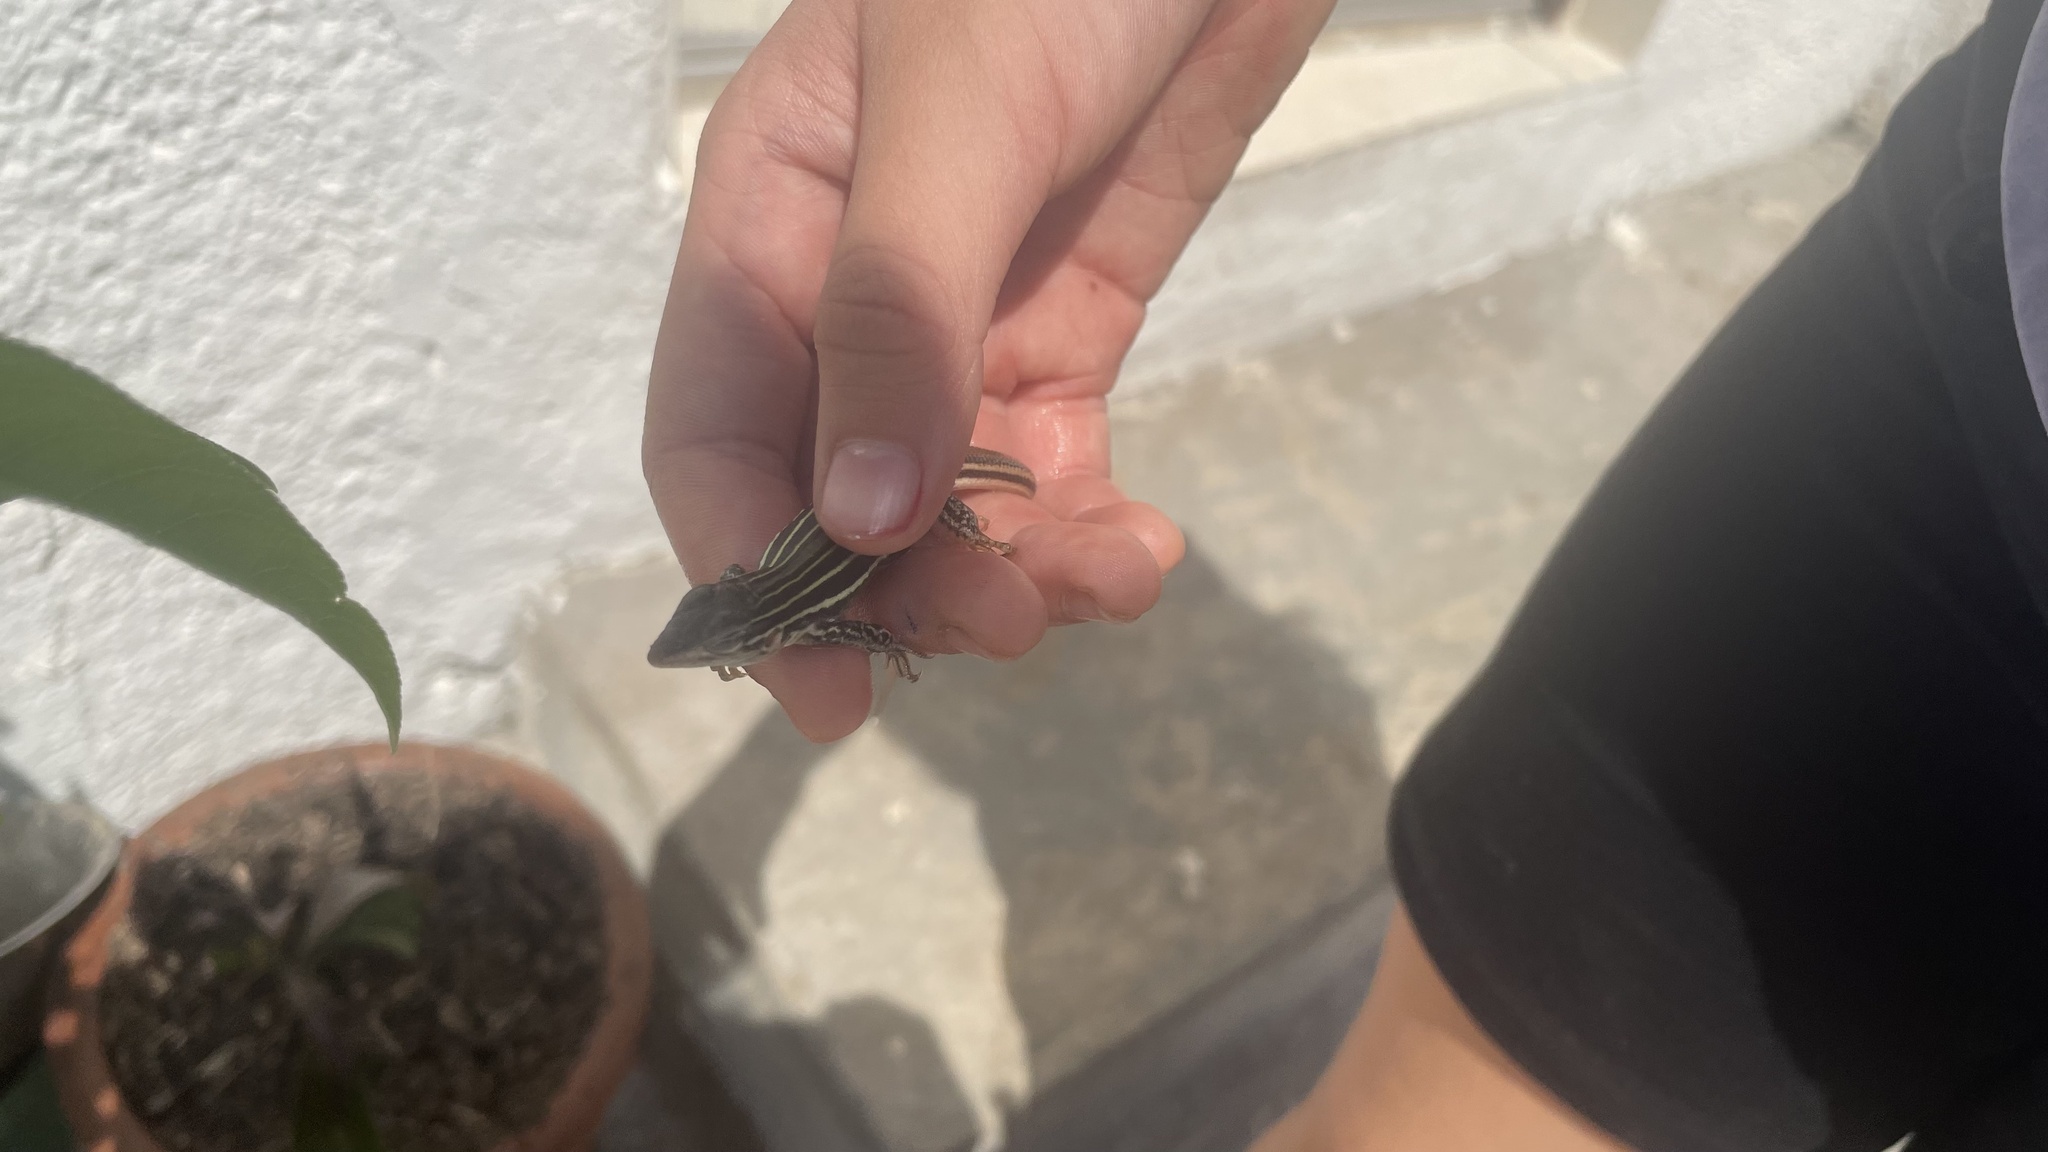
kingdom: Animalia
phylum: Chordata
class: Squamata
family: Teiidae
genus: Aspidoscelis
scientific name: Aspidoscelis gularis
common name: Eastern spotted whiptail
